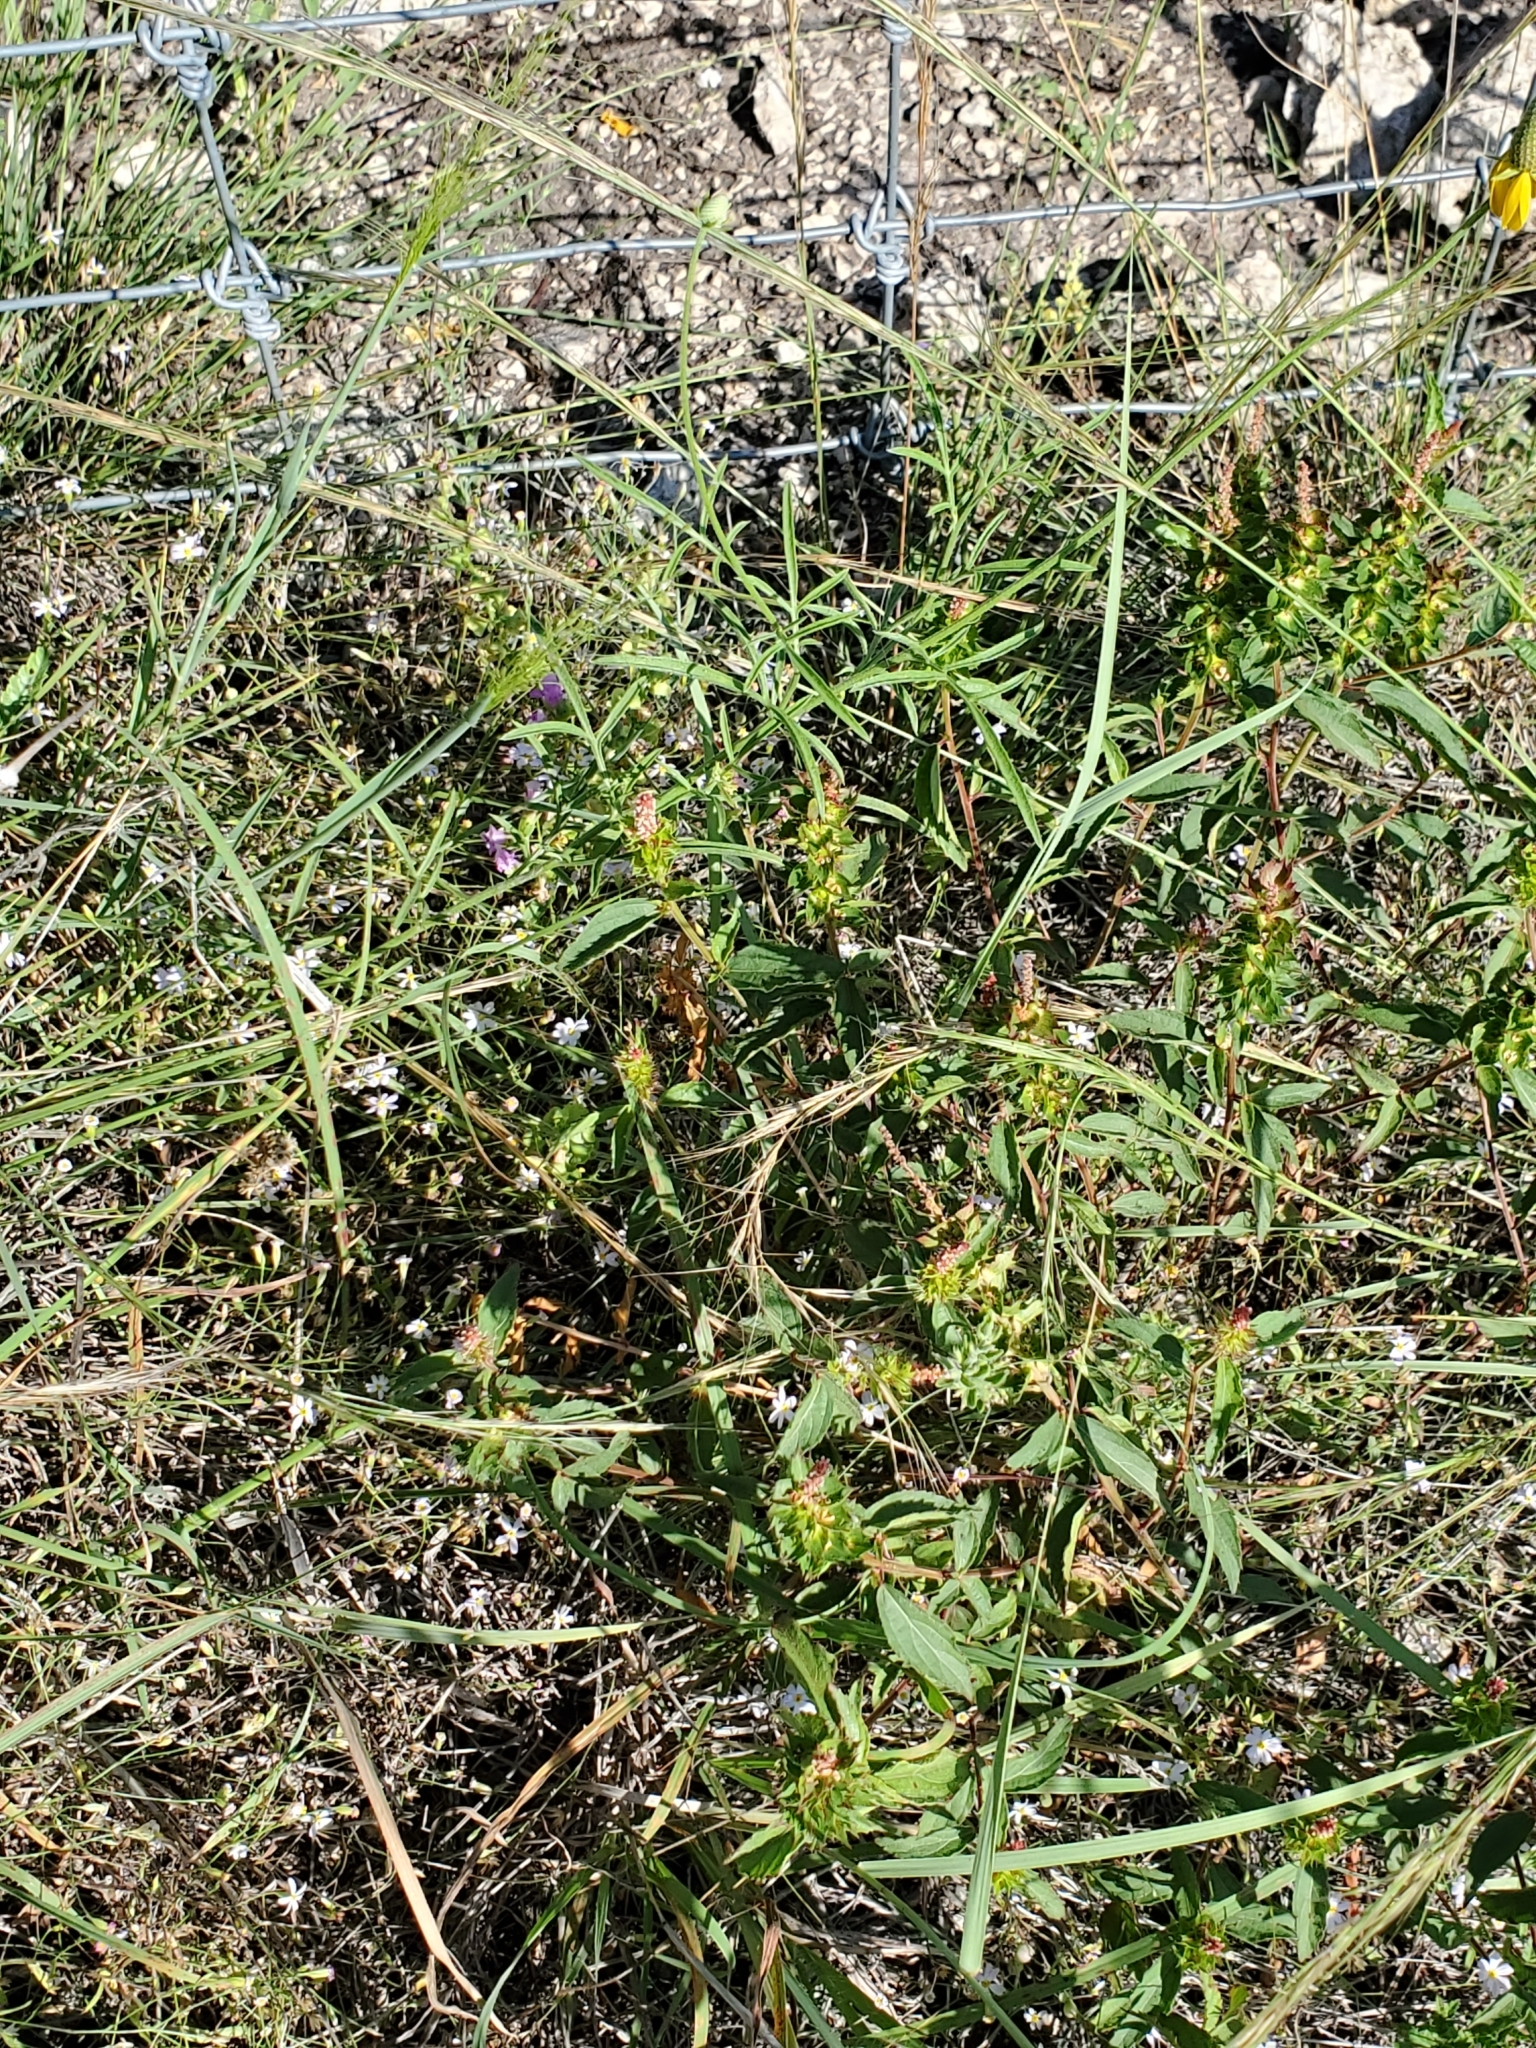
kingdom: Plantae
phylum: Tracheophyta
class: Magnoliopsida
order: Malpighiales
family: Euphorbiaceae
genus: Acalypha
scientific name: Acalypha phleoides
